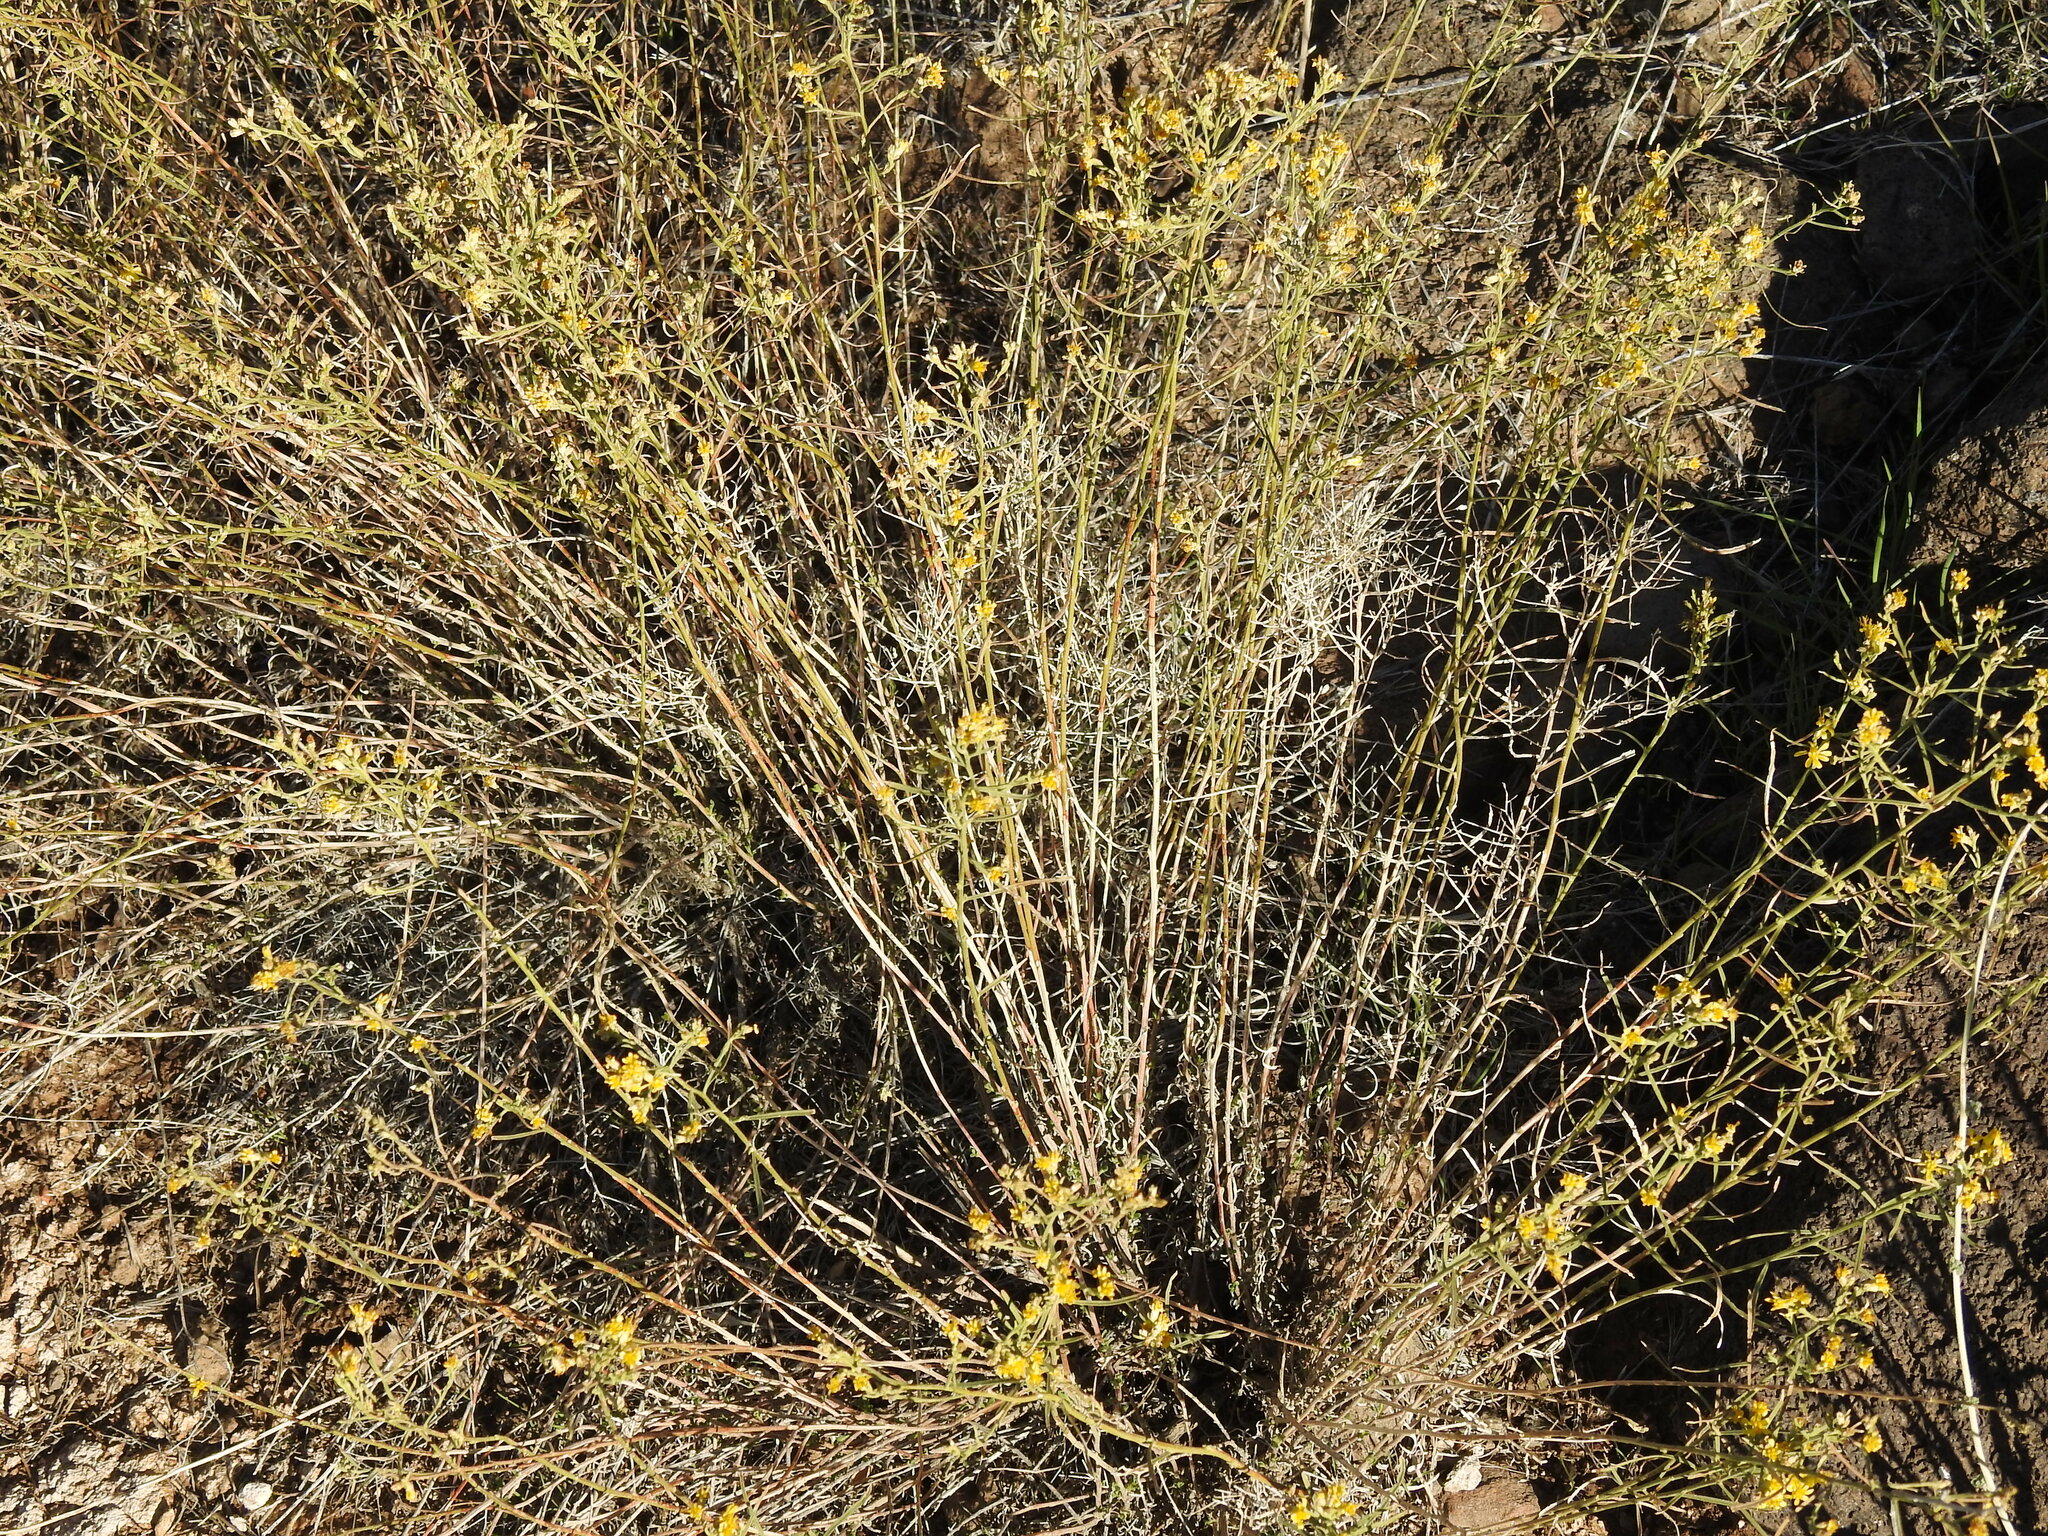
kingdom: Plantae
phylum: Tracheophyta
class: Magnoliopsida
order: Asterales
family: Asteraceae
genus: Gutierrezia
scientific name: Gutierrezia sarothrae
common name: Broom snakeweed
